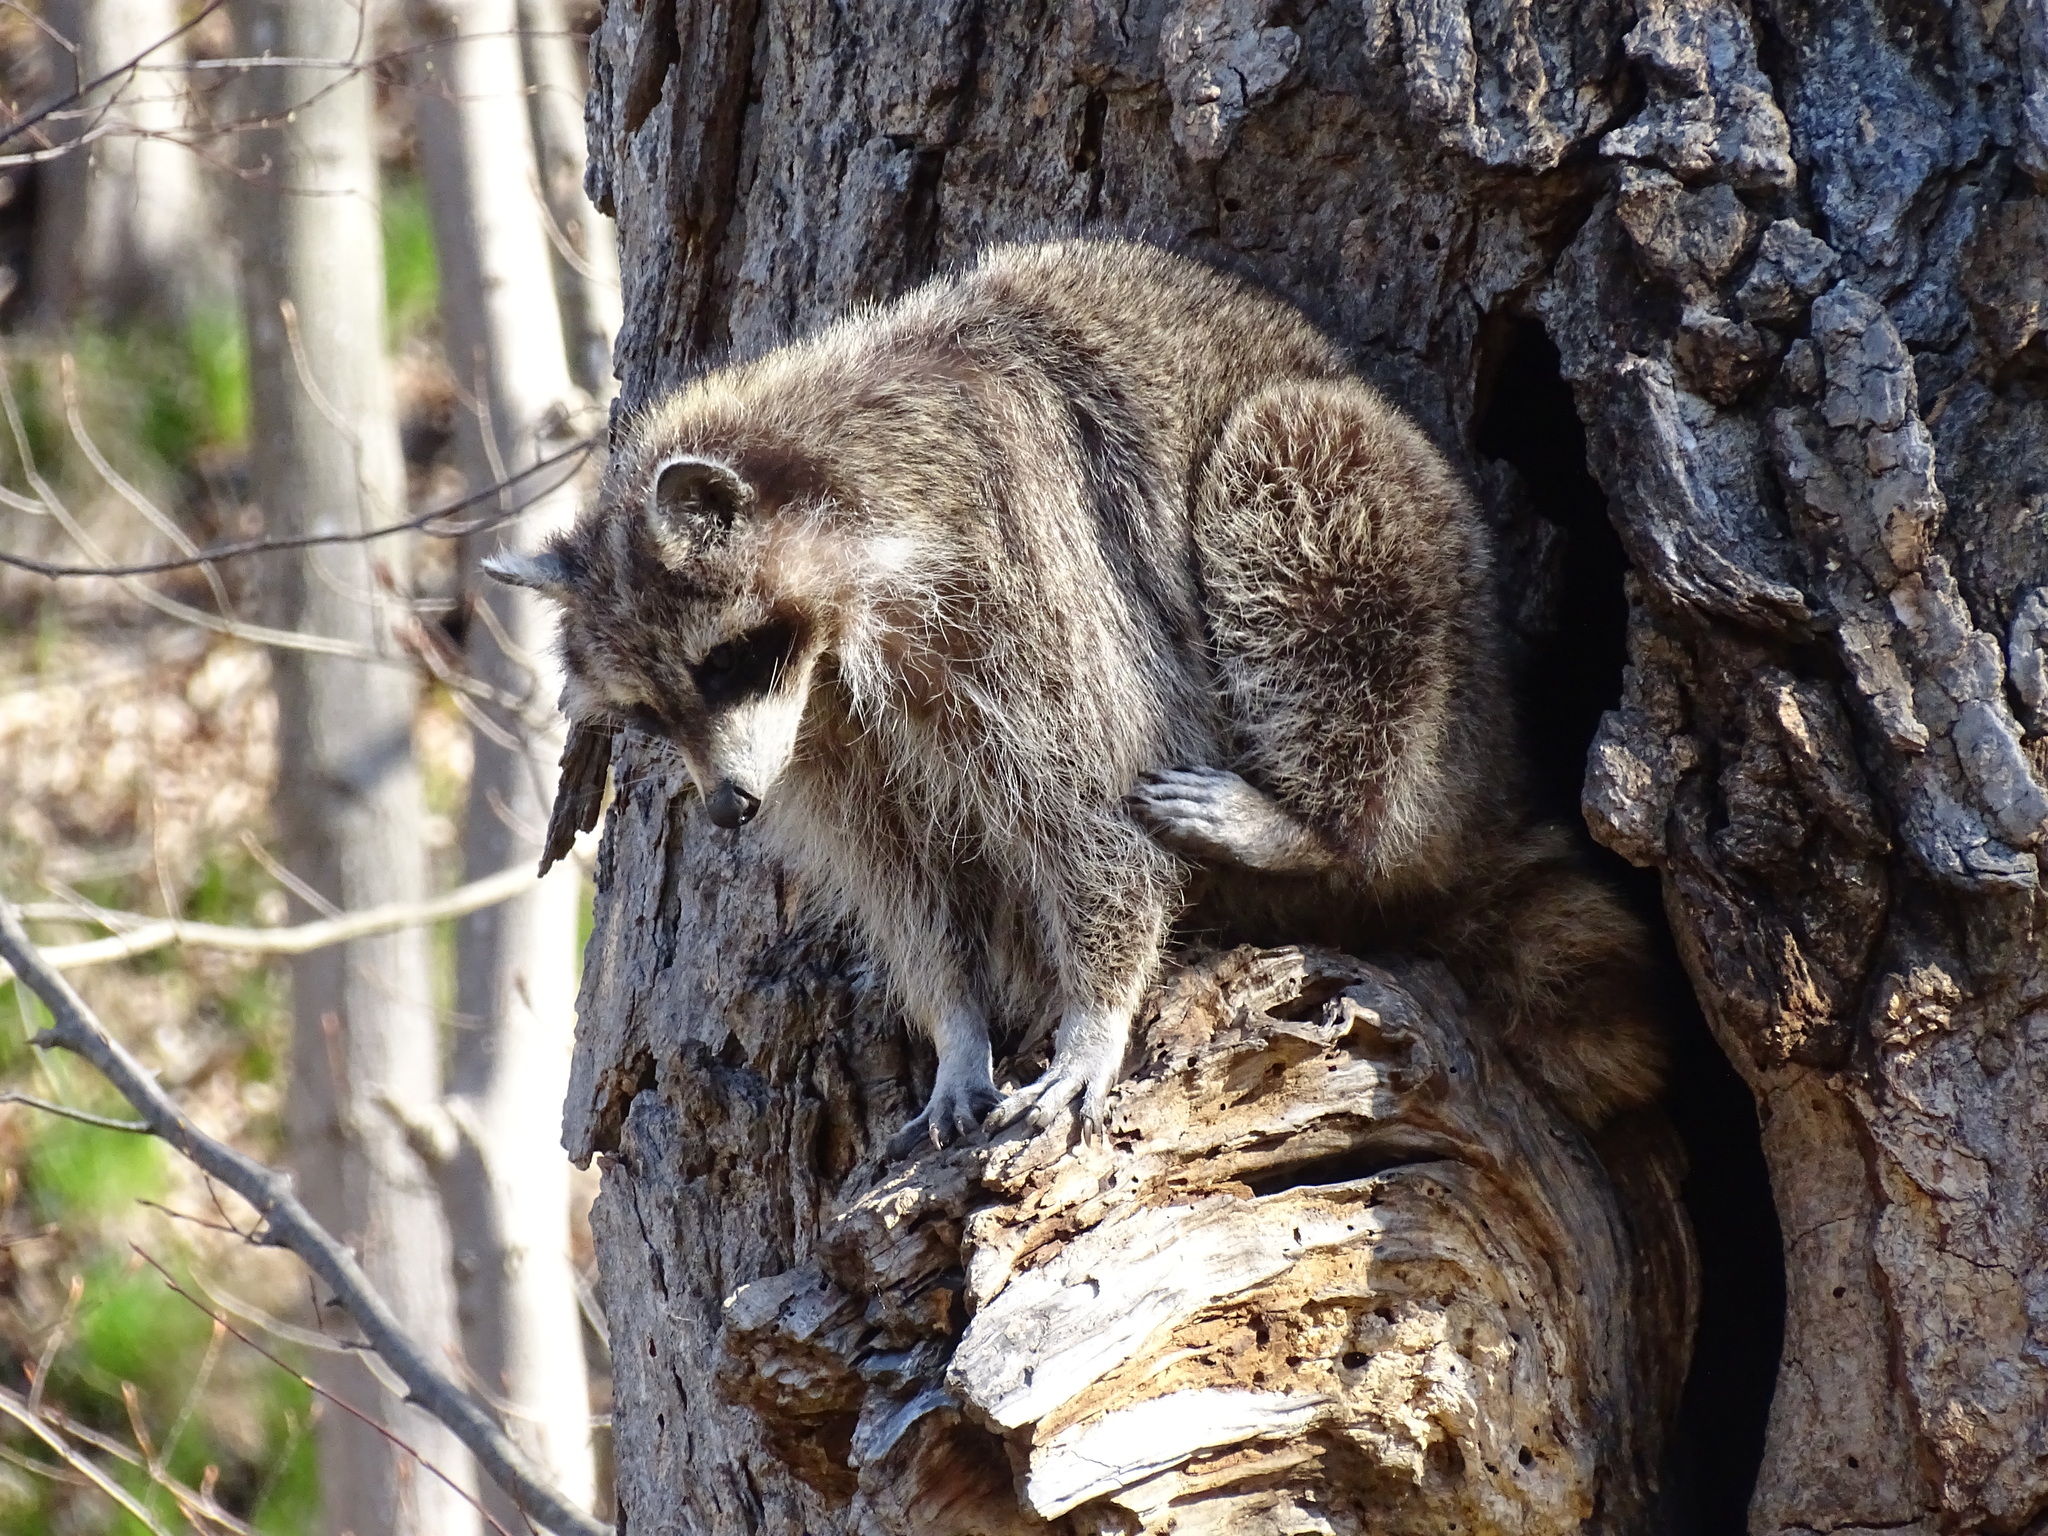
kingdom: Animalia
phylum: Chordata
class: Mammalia
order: Carnivora
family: Procyonidae
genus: Procyon
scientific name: Procyon lotor
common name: Raccoon
